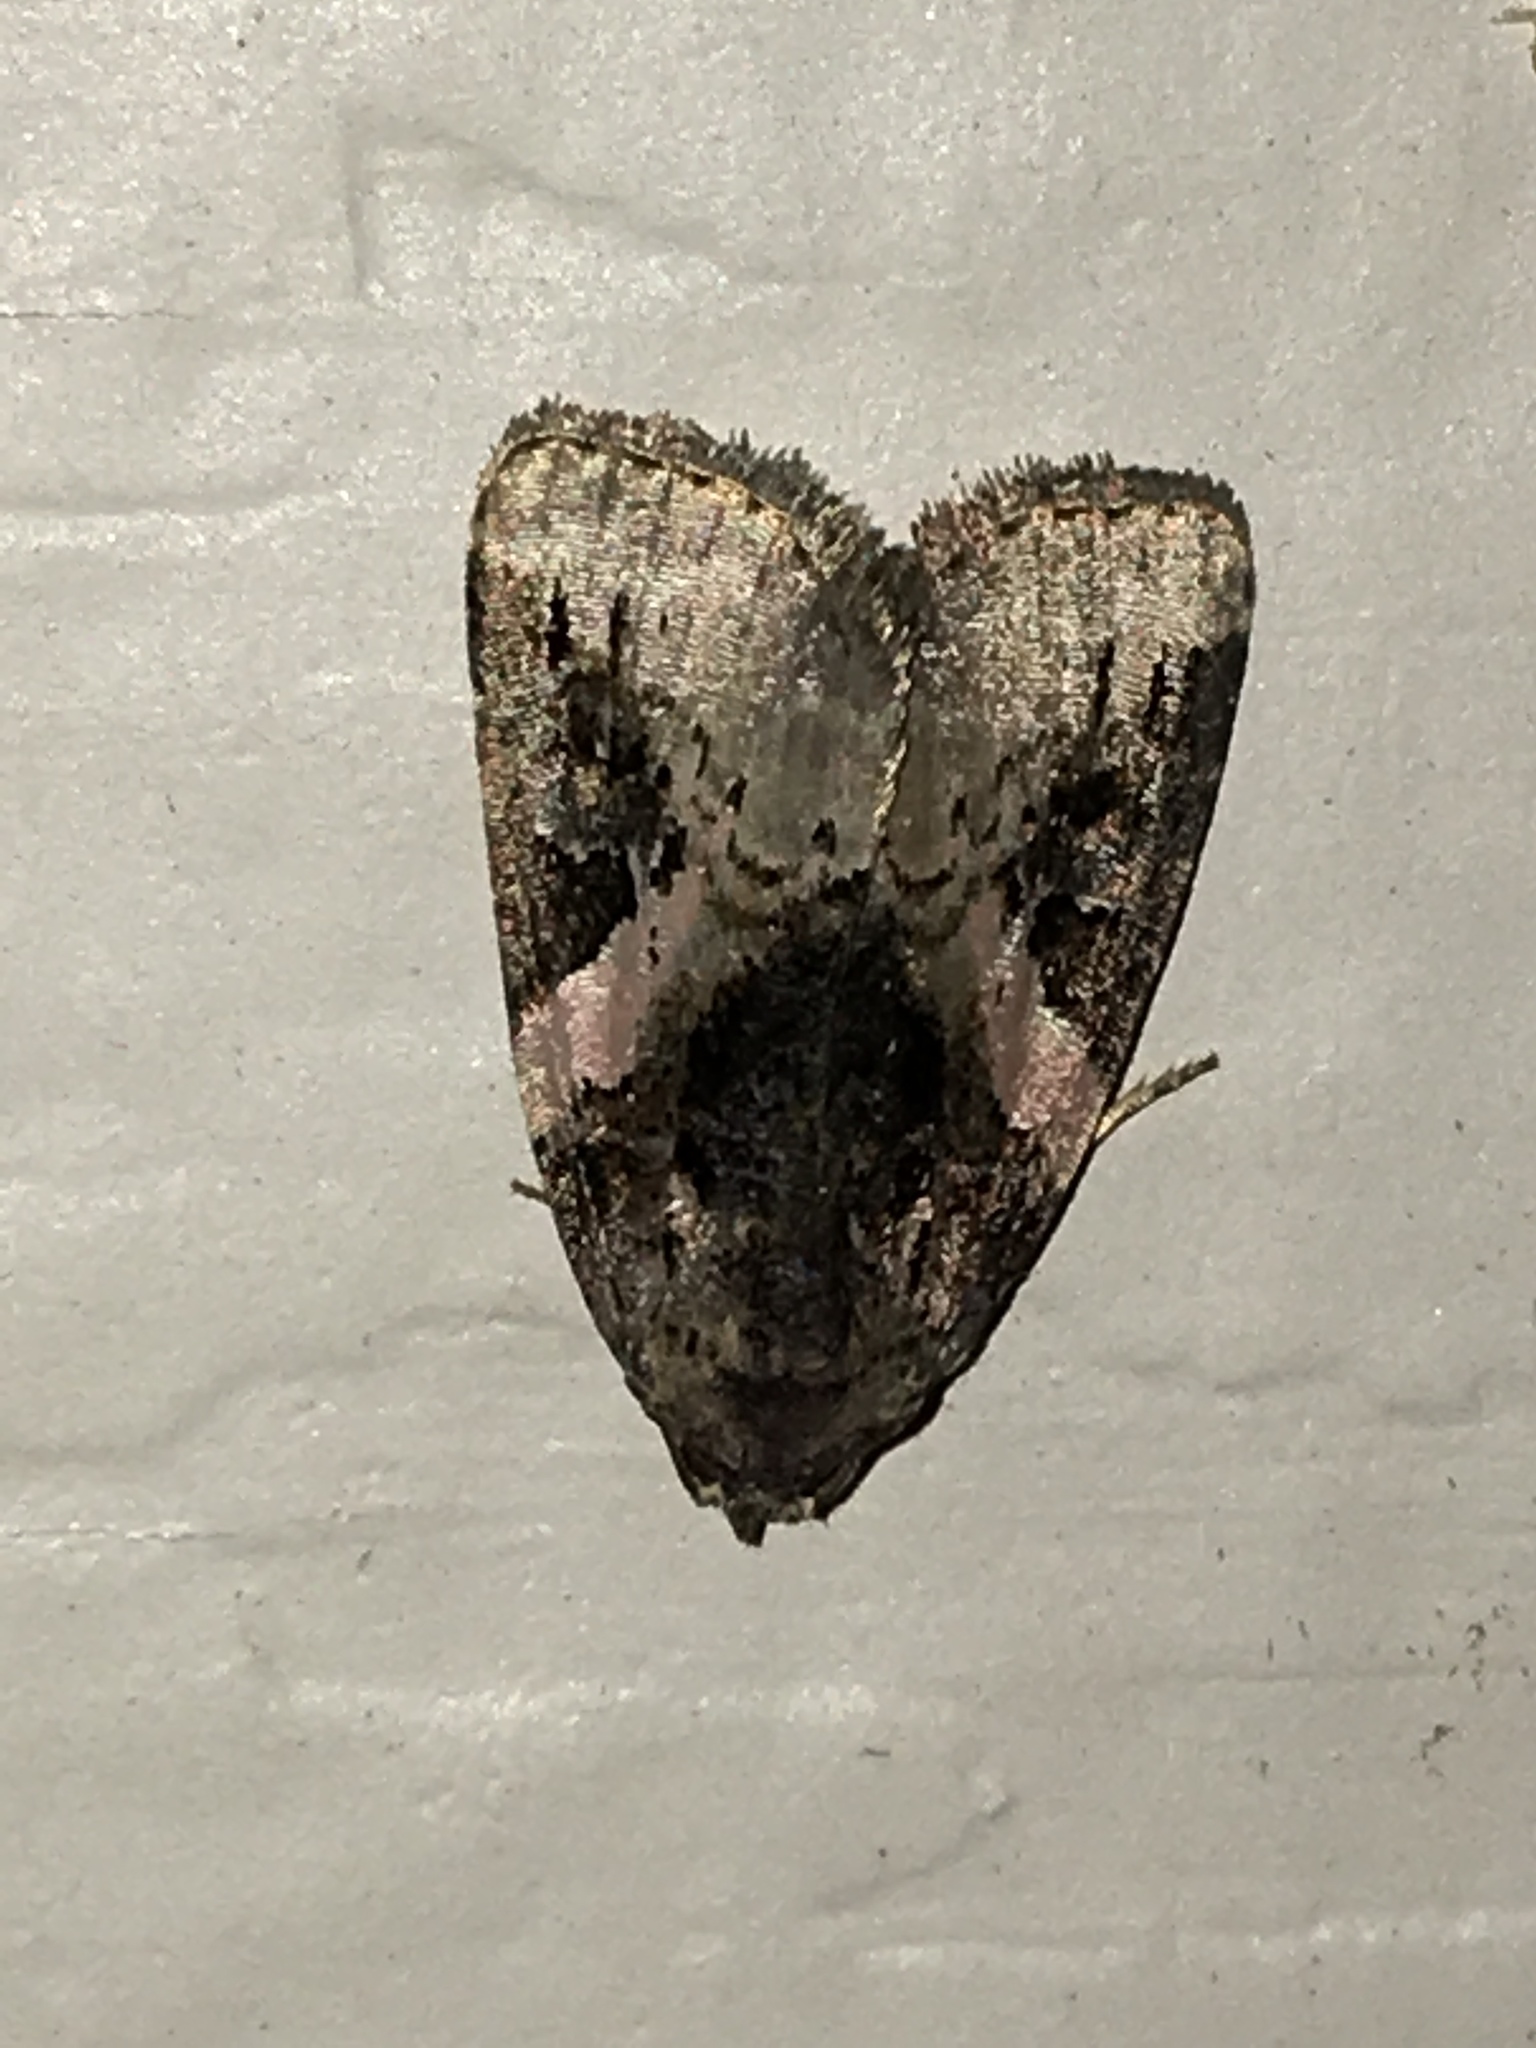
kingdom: Animalia
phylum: Arthropoda
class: Insecta
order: Lepidoptera
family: Noctuidae
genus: Pseudeustrotia
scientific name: Pseudeustrotia carneola
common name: Pink-barred lithacodia moth
